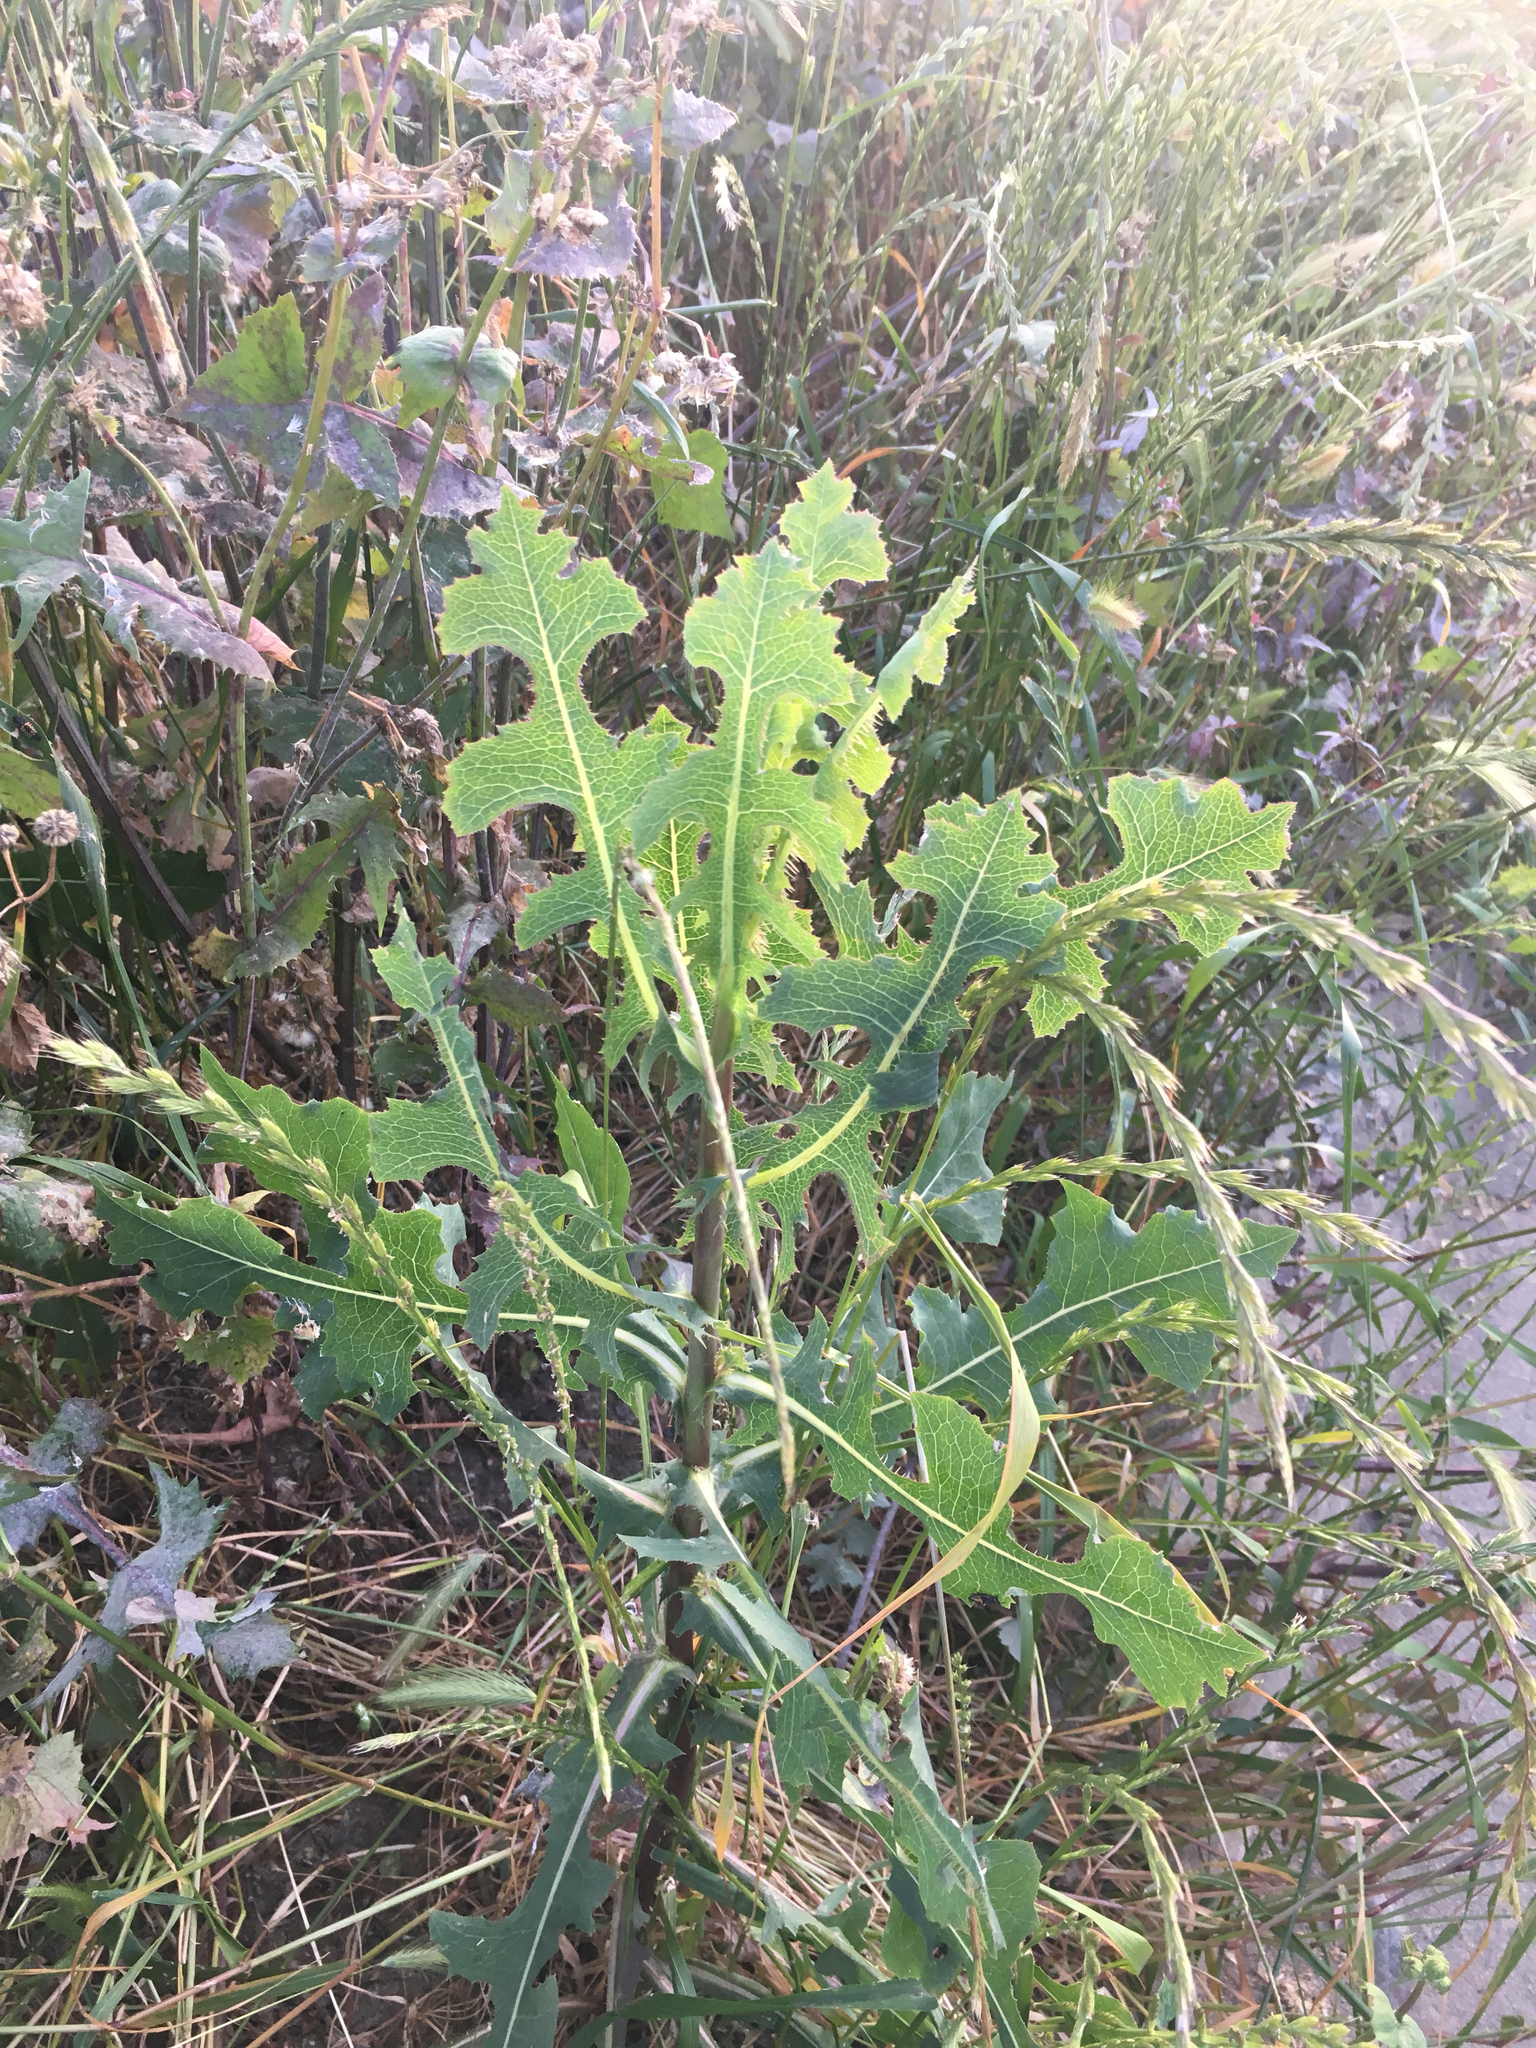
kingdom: Plantae
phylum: Tracheophyta
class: Magnoliopsida
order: Asterales
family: Asteraceae
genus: Lactuca
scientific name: Lactuca serriola
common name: Prickly lettuce
